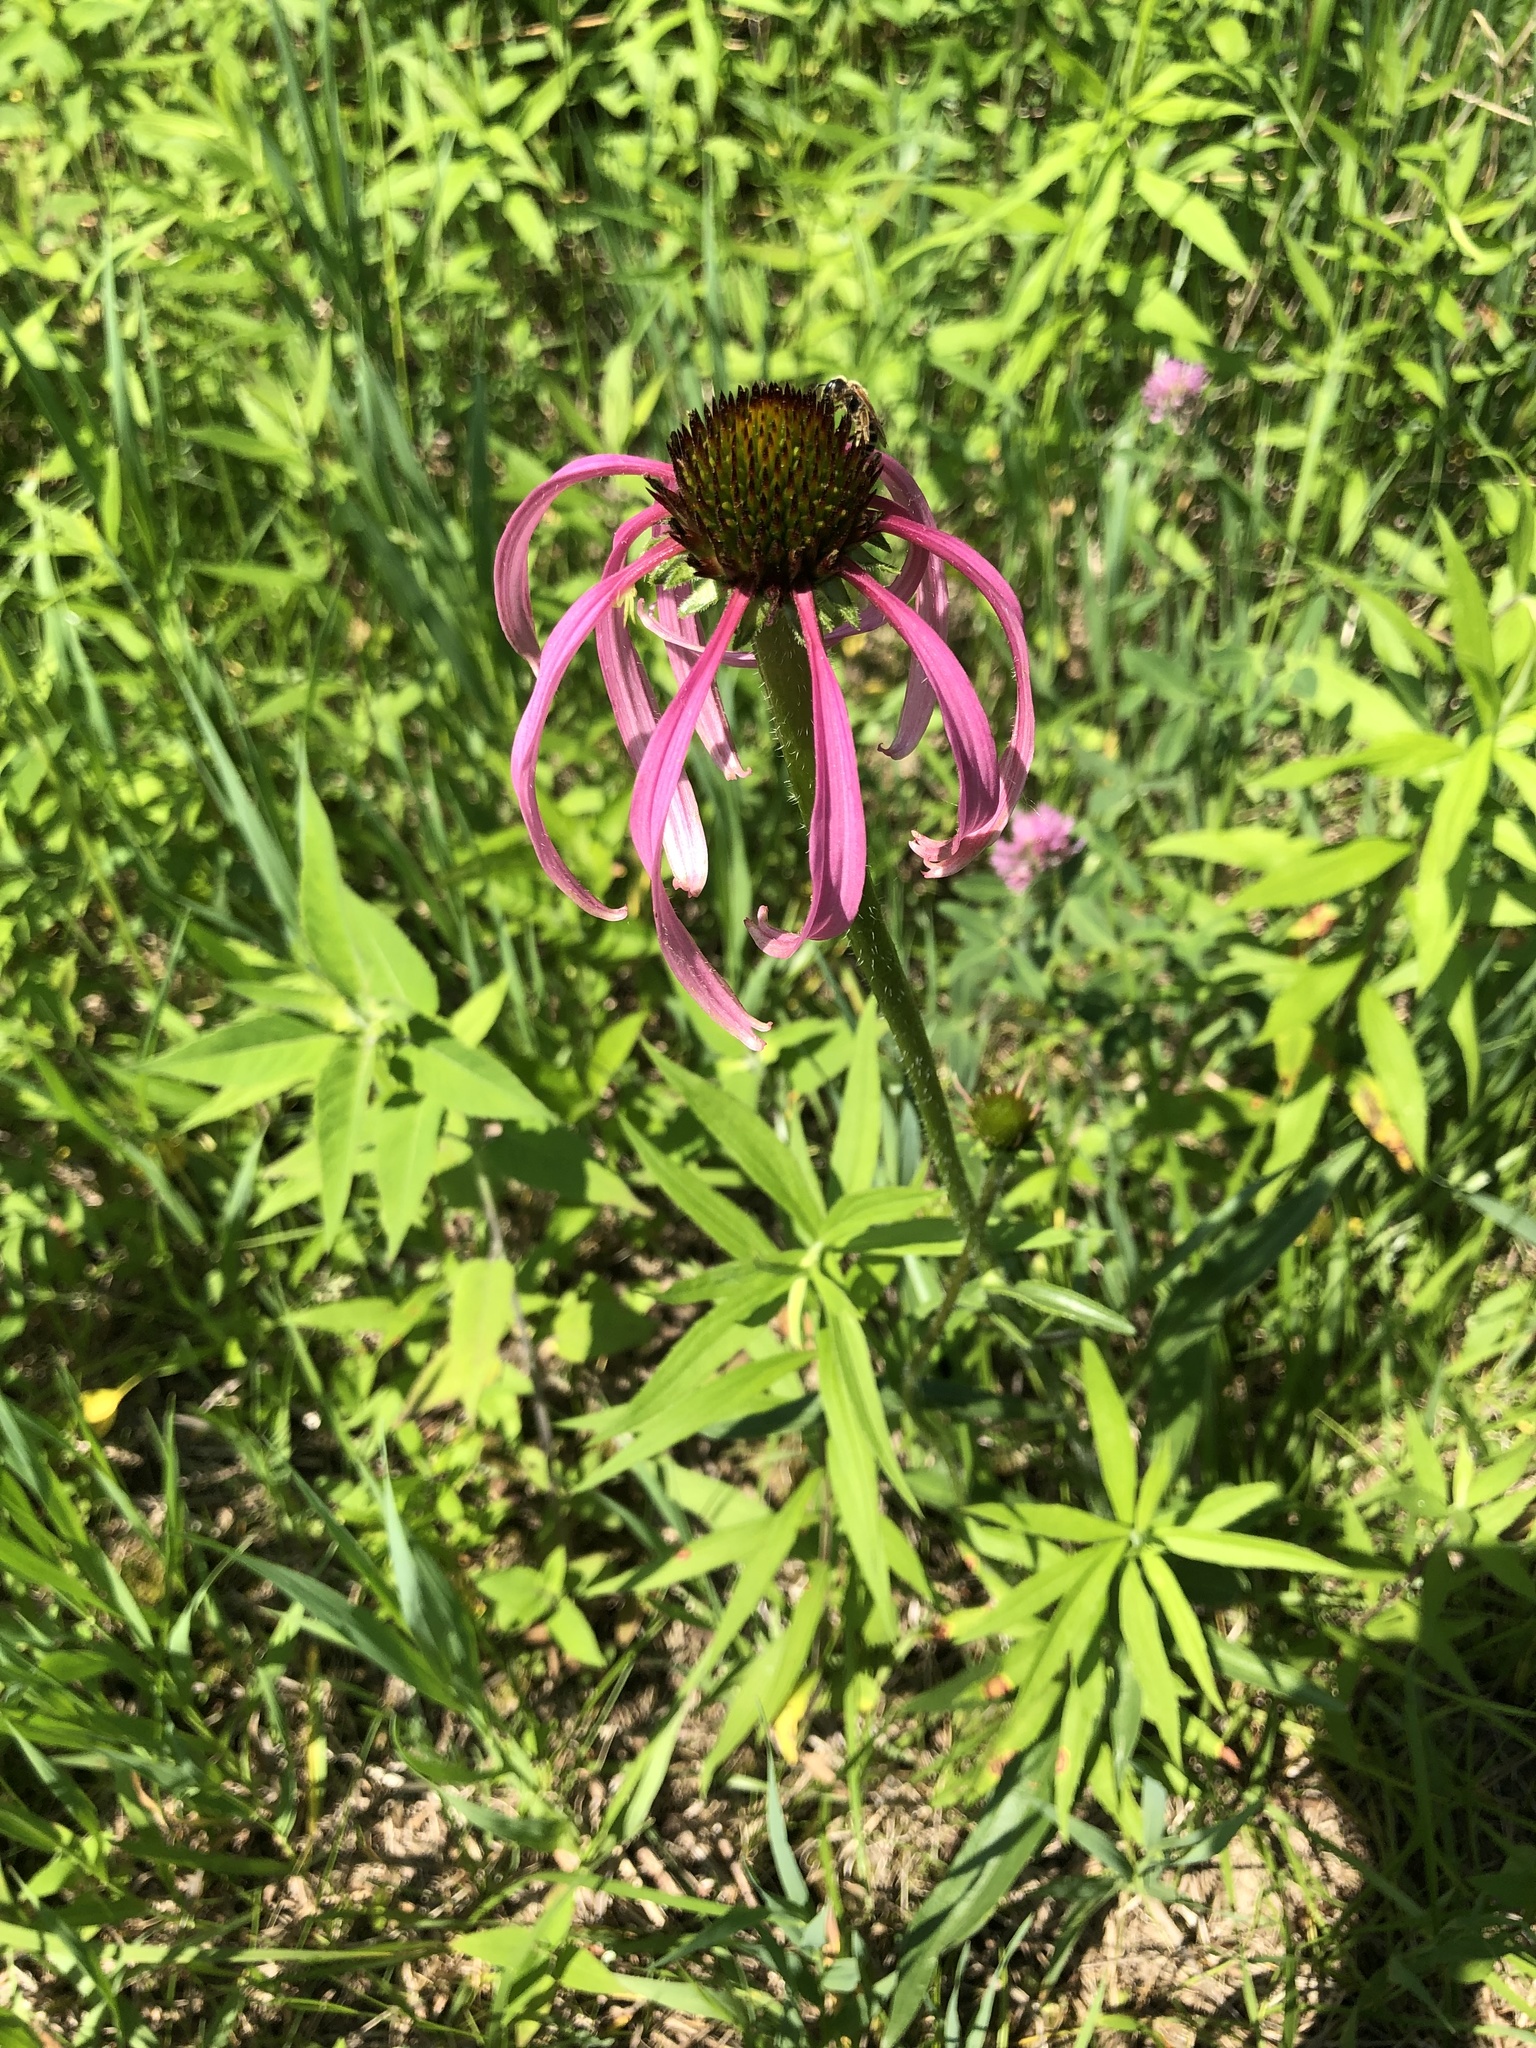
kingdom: Plantae
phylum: Tracheophyta
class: Magnoliopsida
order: Asterales
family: Asteraceae
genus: Echinacea
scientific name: Echinacea pallida
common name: Pale echinacea
